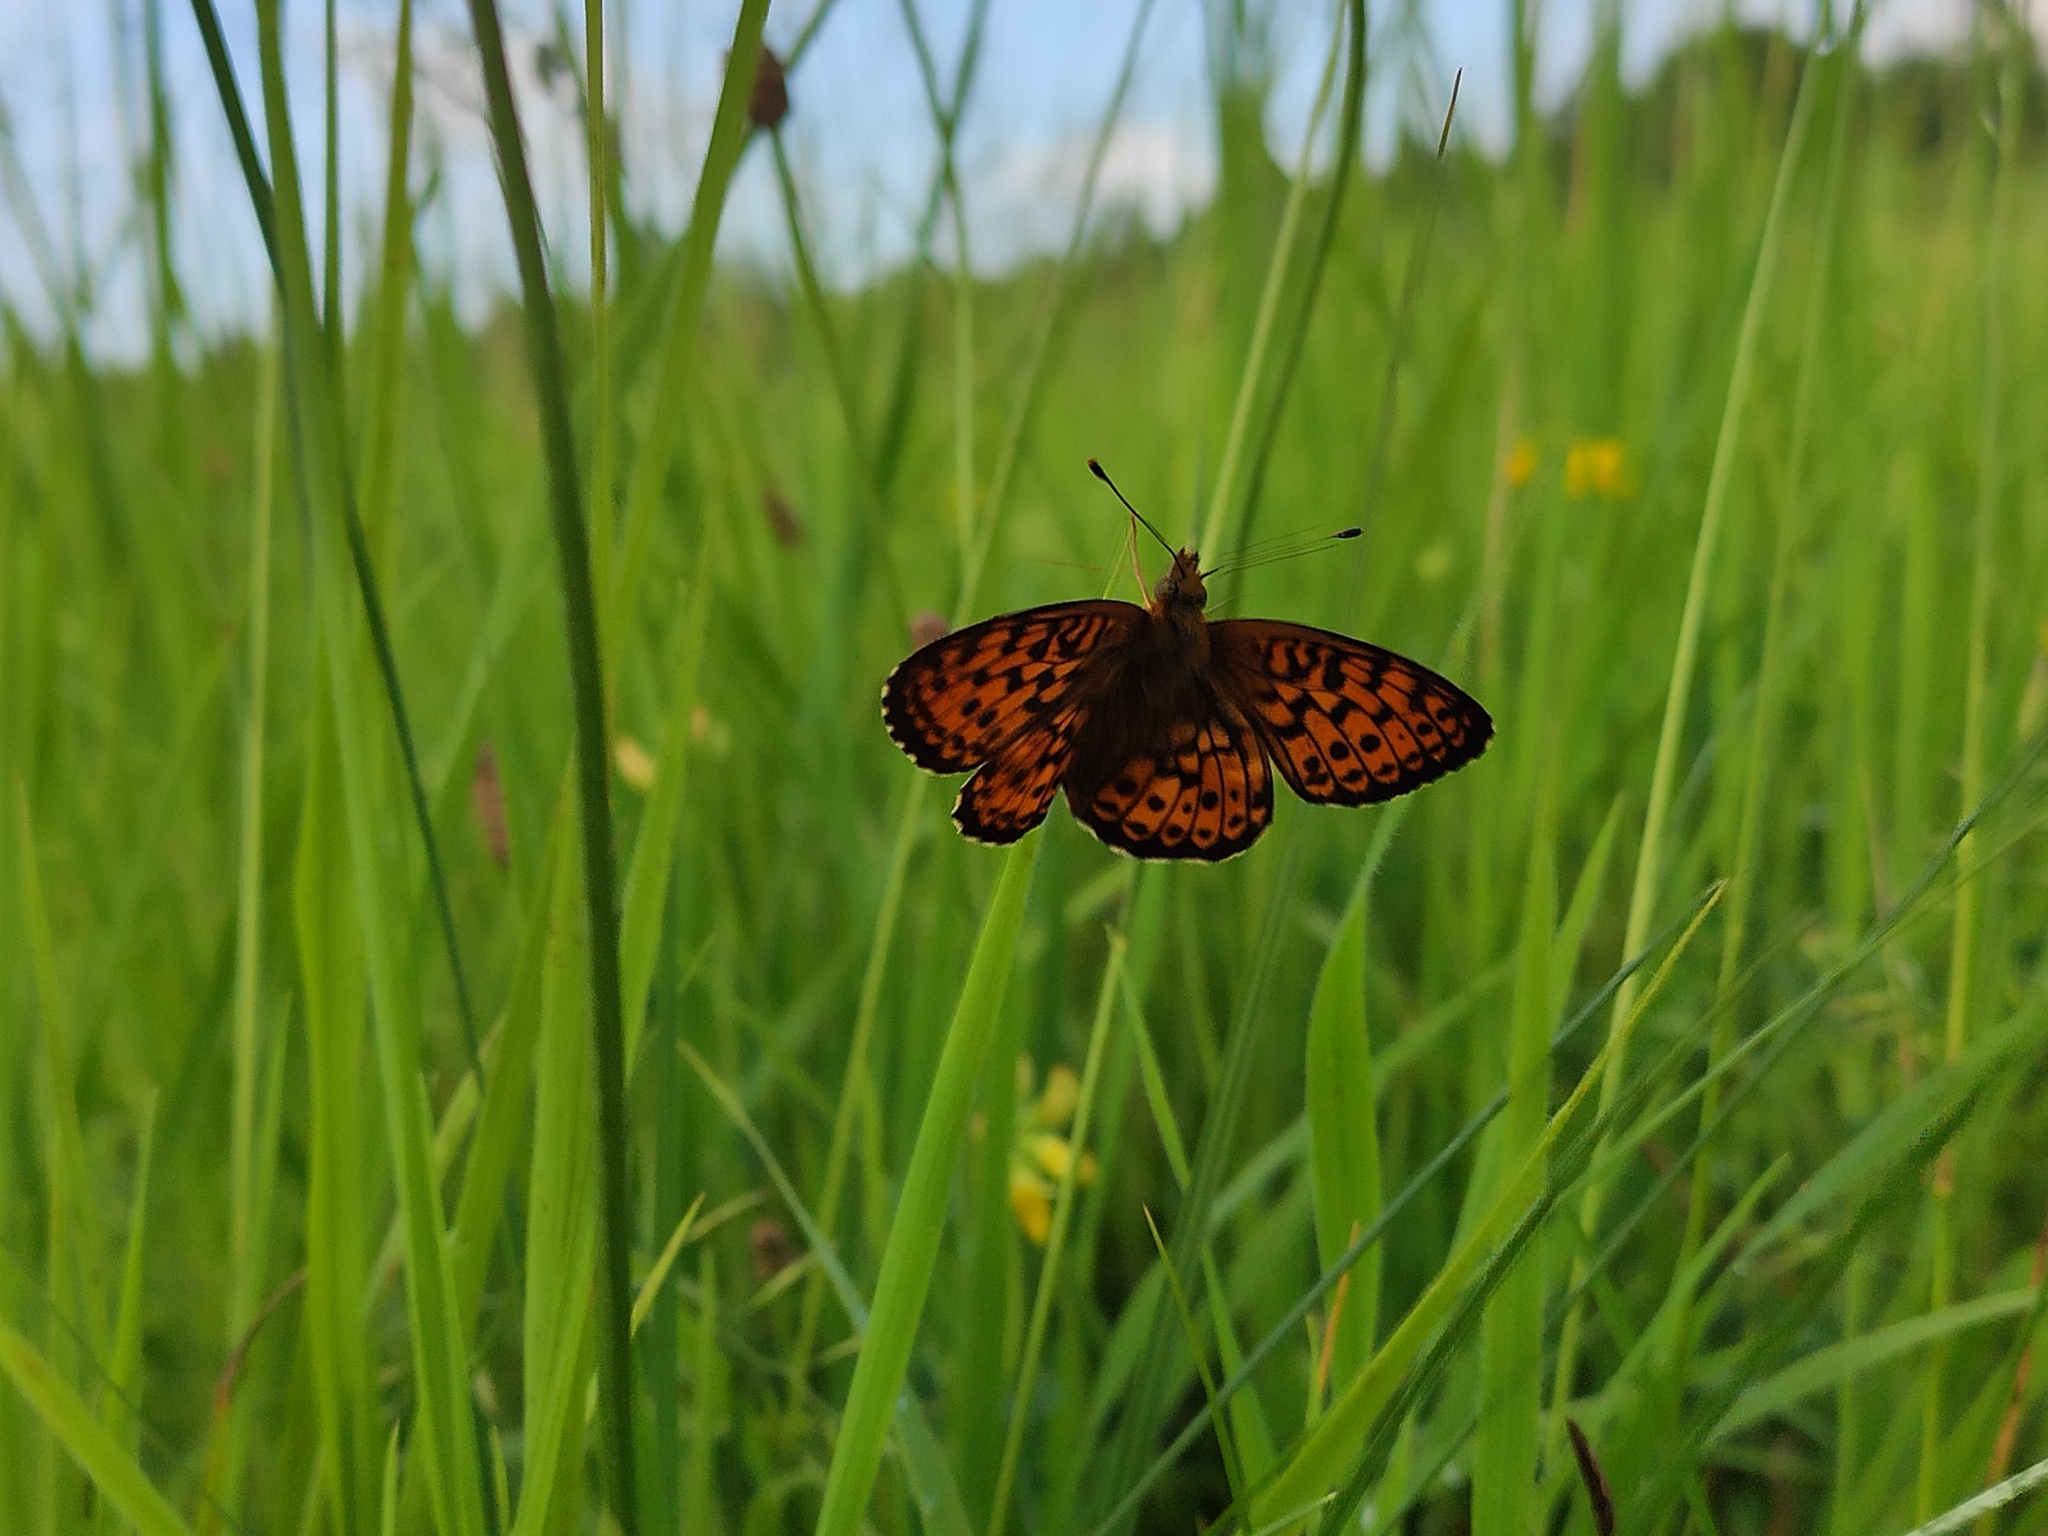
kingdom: Animalia
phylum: Arthropoda
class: Insecta
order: Lepidoptera
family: Nymphalidae
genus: Brenthis
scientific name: Brenthis ino
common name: Lesser marbled fritillary
